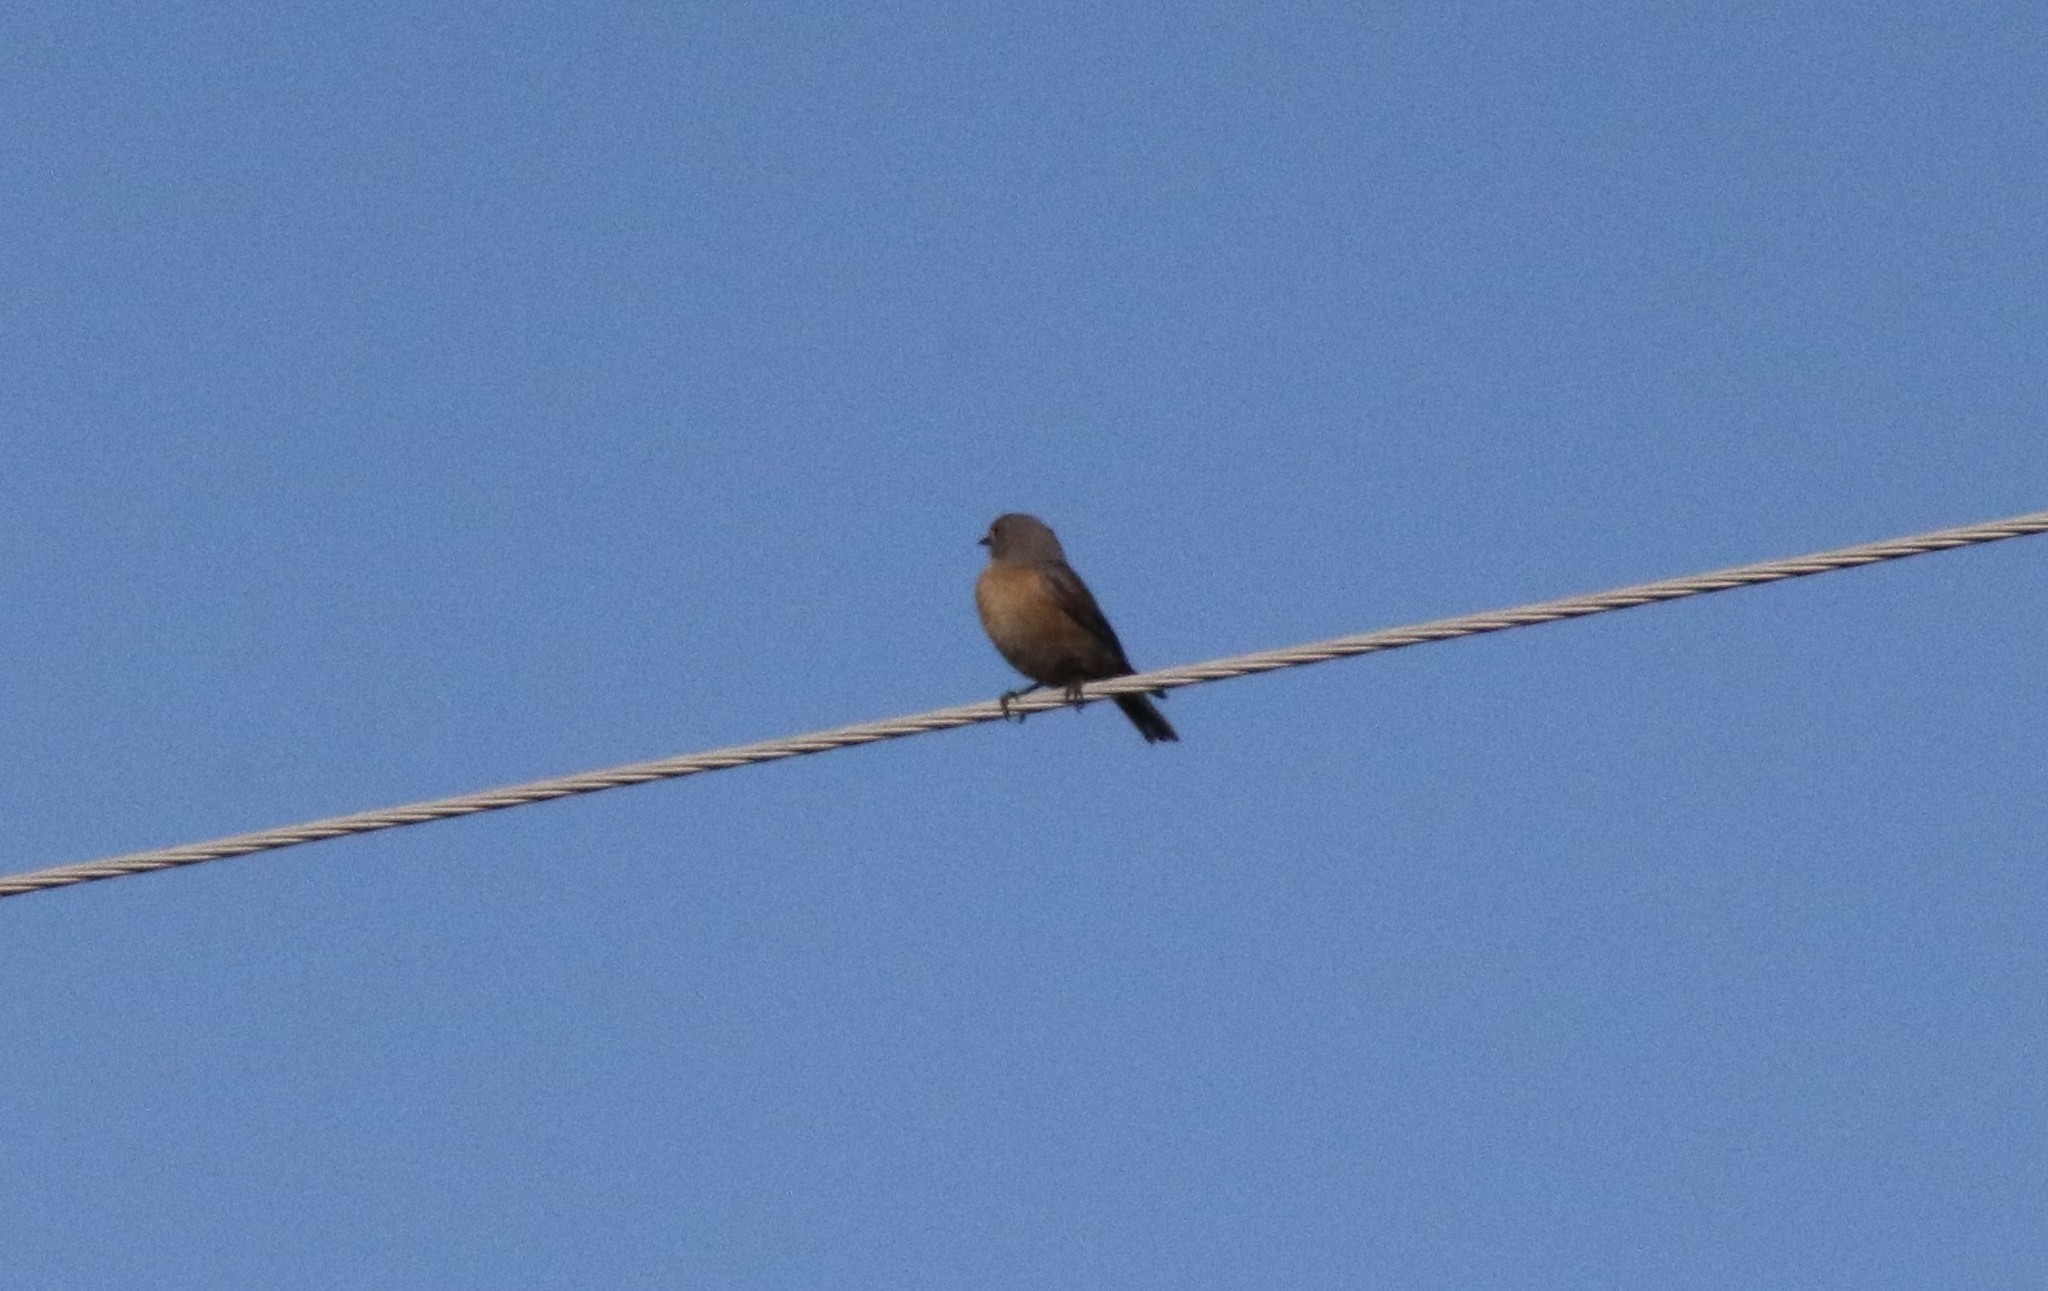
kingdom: Animalia
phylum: Chordata
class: Aves
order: Passeriformes
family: Turdidae
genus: Sialia
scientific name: Sialia mexicana
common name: Western bluebird
